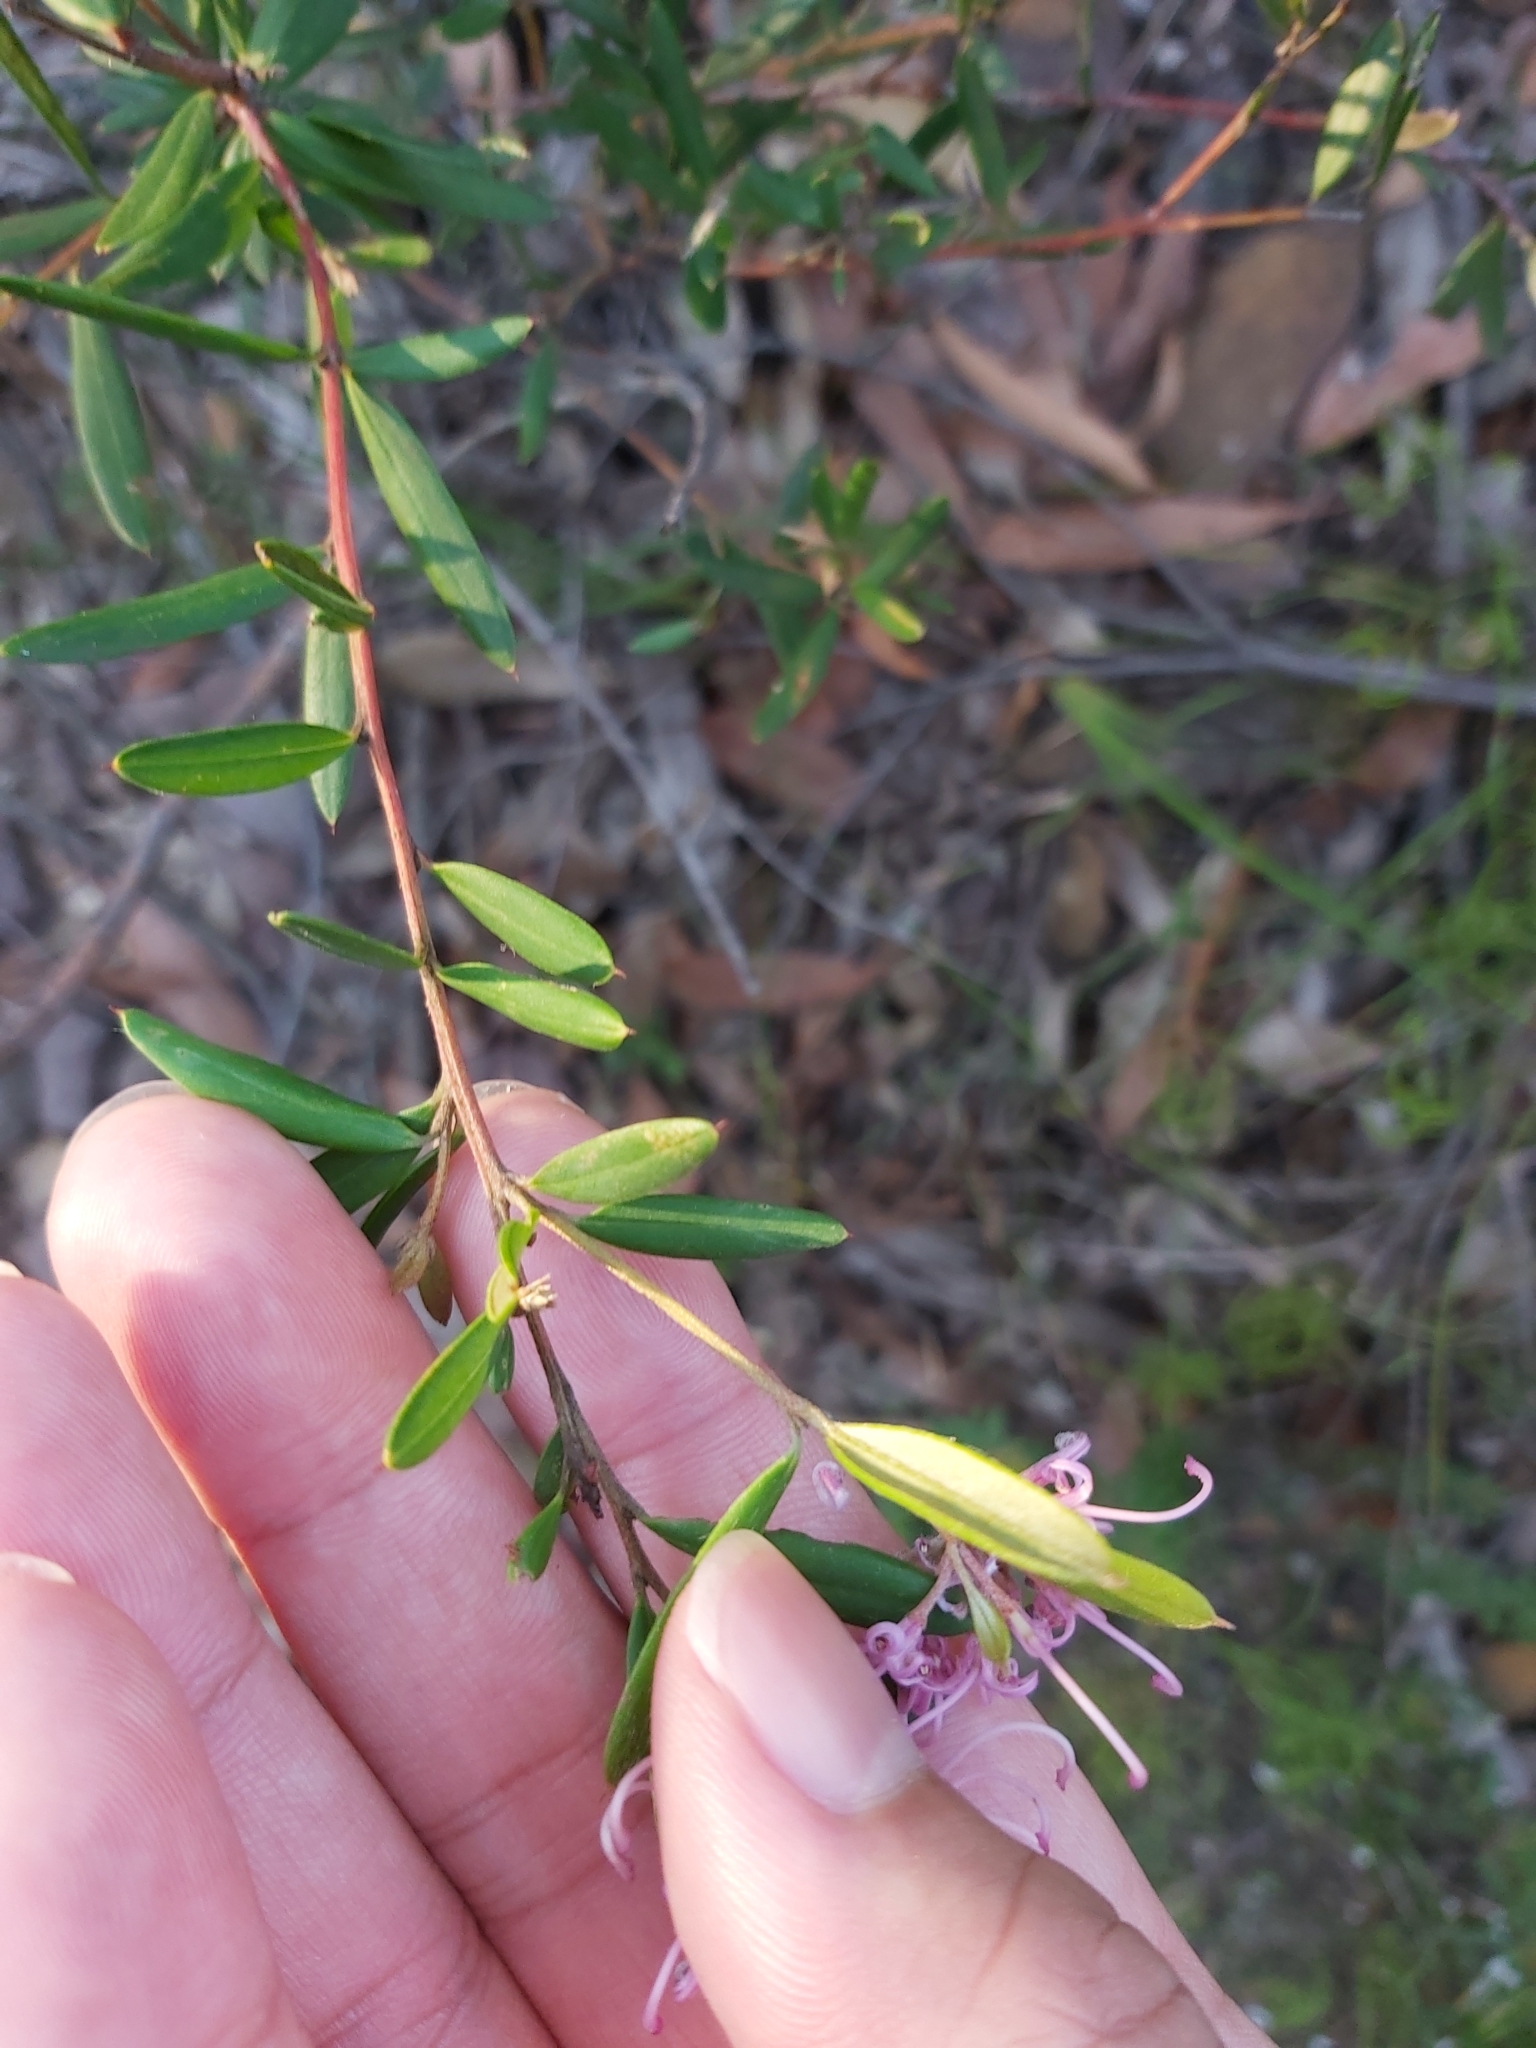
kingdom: Plantae
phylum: Tracheophyta
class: Magnoliopsida
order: Proteales
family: Proteaceae
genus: Grevillea
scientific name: Grevillea sericea
